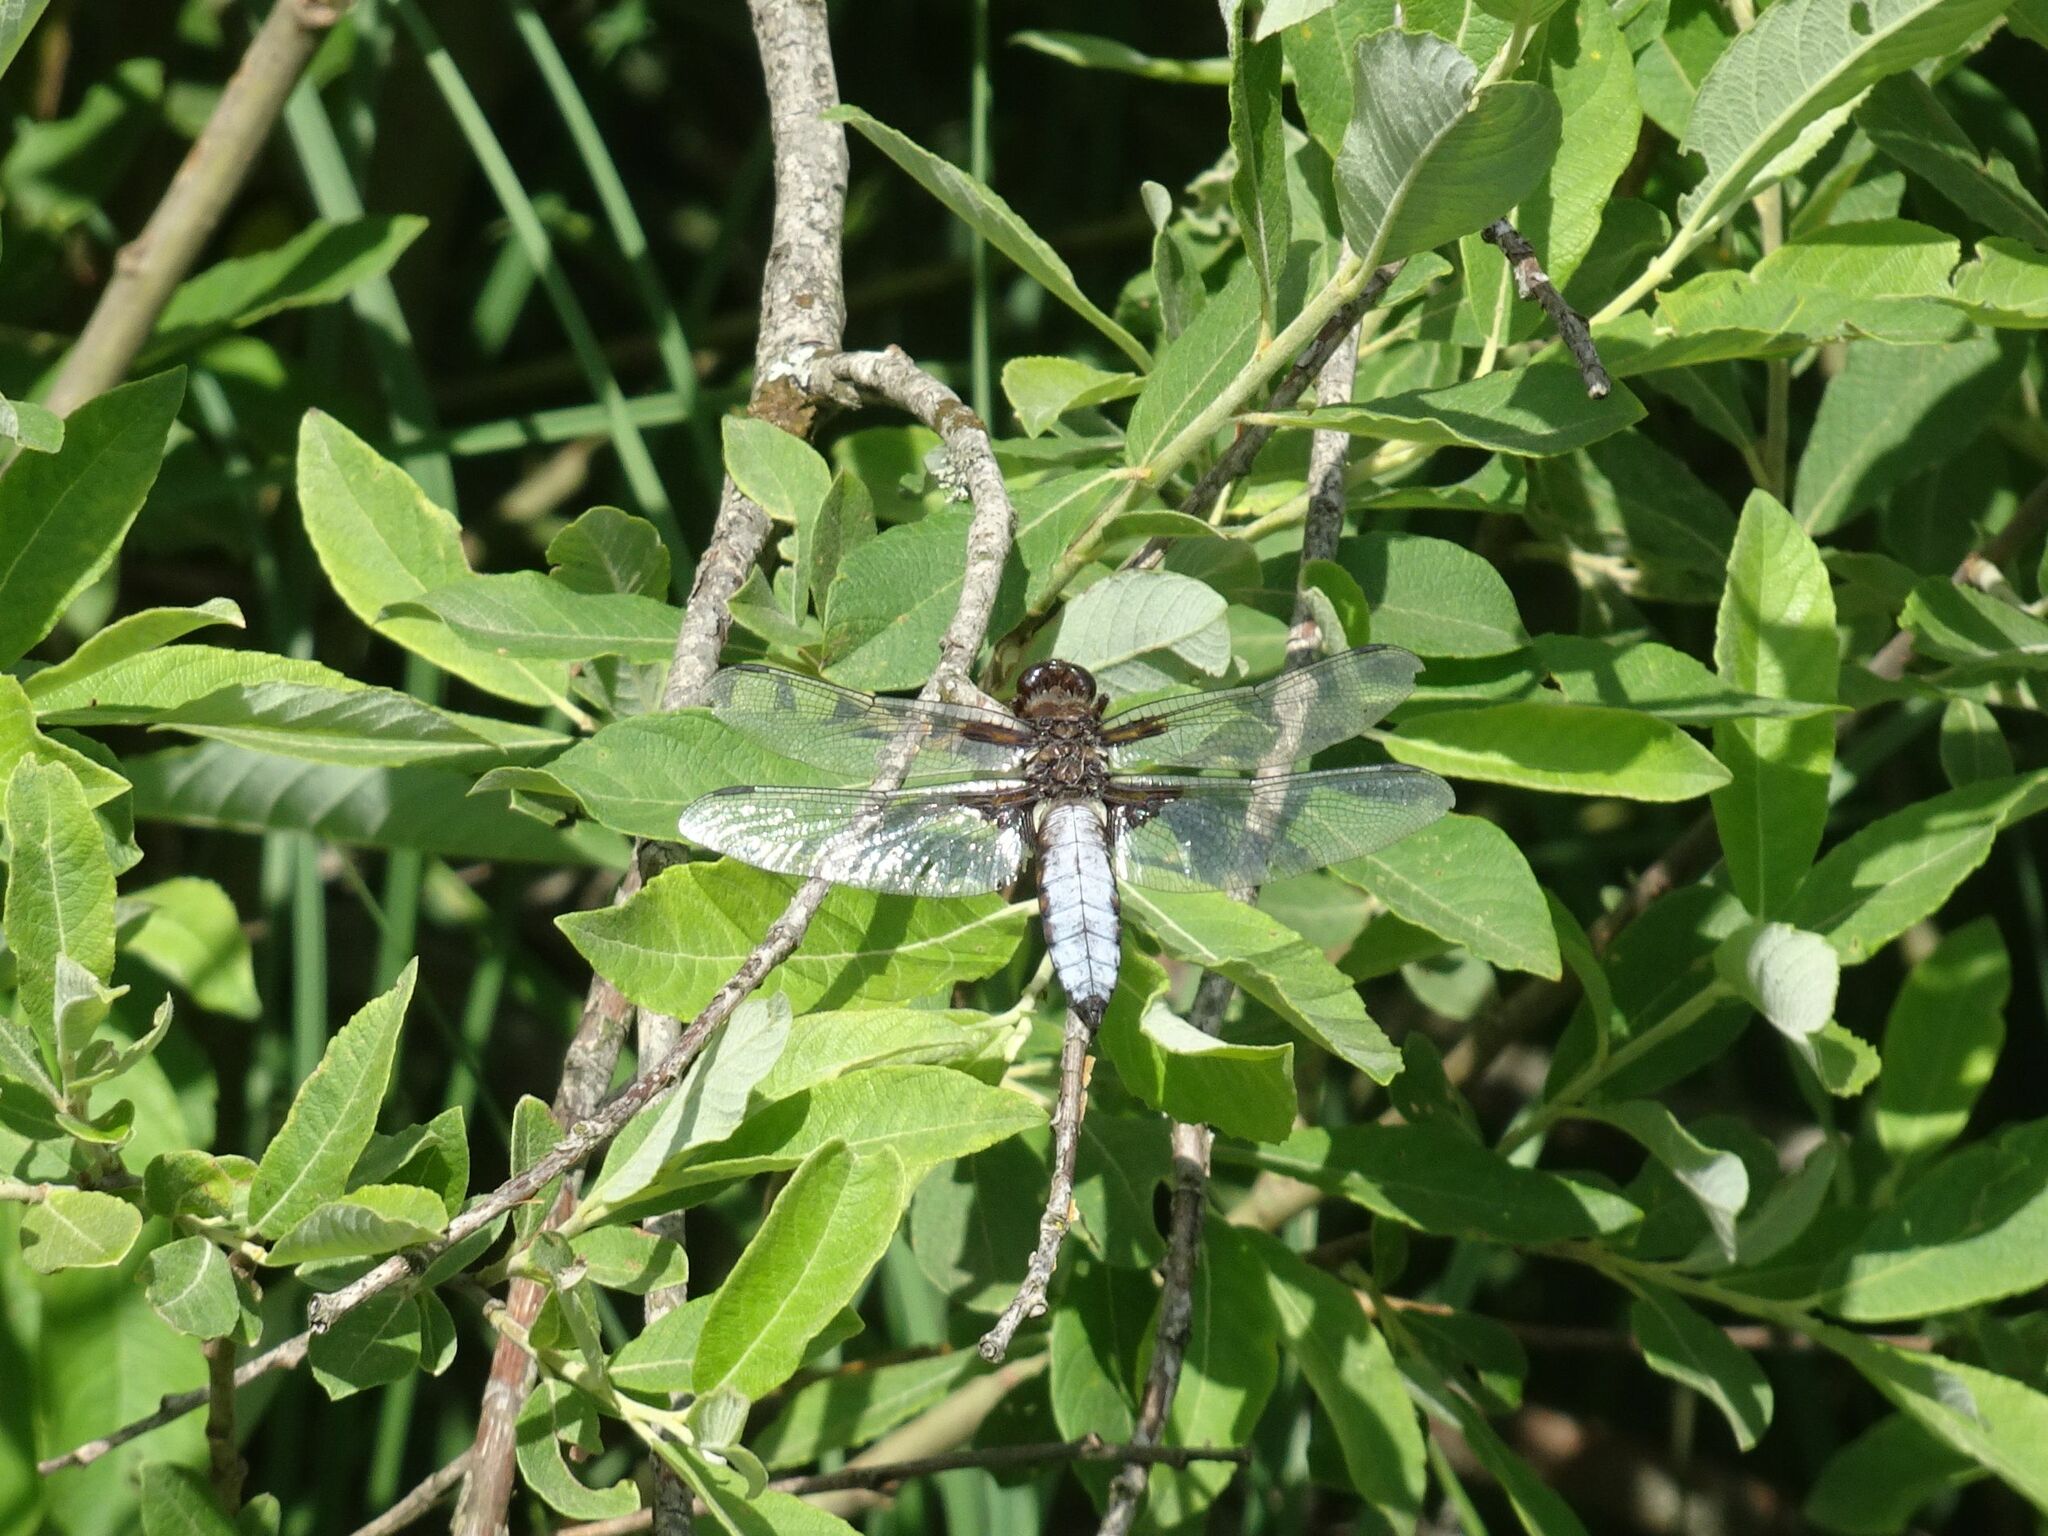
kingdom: Animalia
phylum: Arthropoda
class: Insecta
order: Odonata
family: Libellulidae
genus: Libellula
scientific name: Libellula depressa
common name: Broad-bodied chaser
